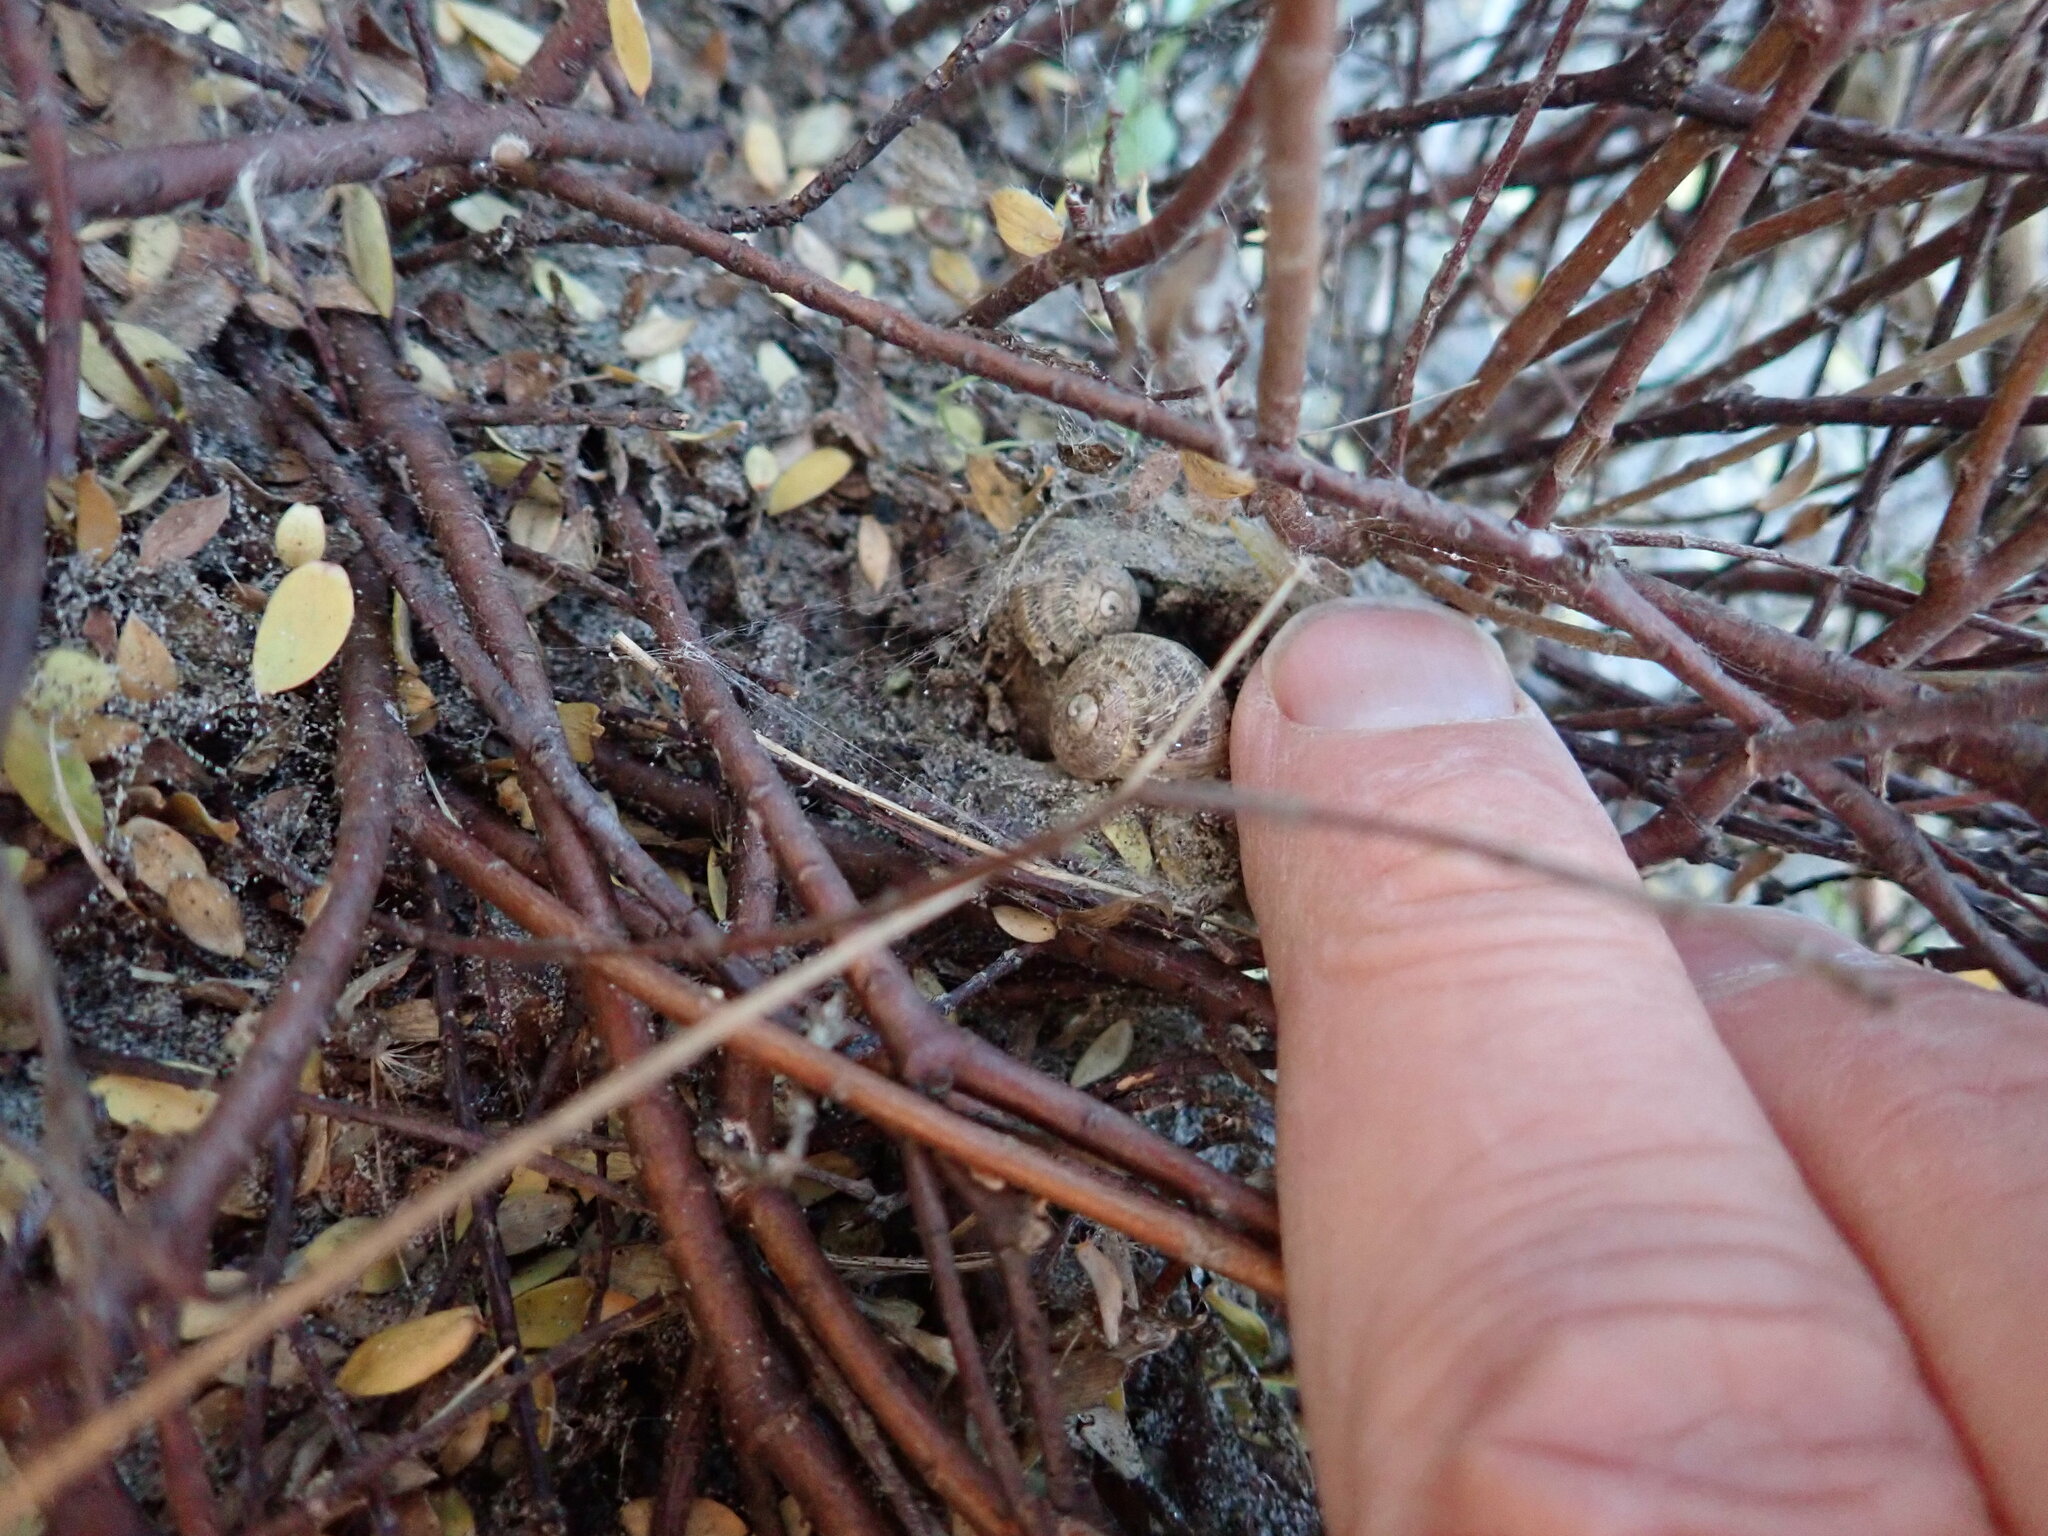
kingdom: Animalia
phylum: Arthropoda
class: Arachnida
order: Araneae
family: Theridiidae
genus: Latrodectus
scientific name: Latrodectus katipo
